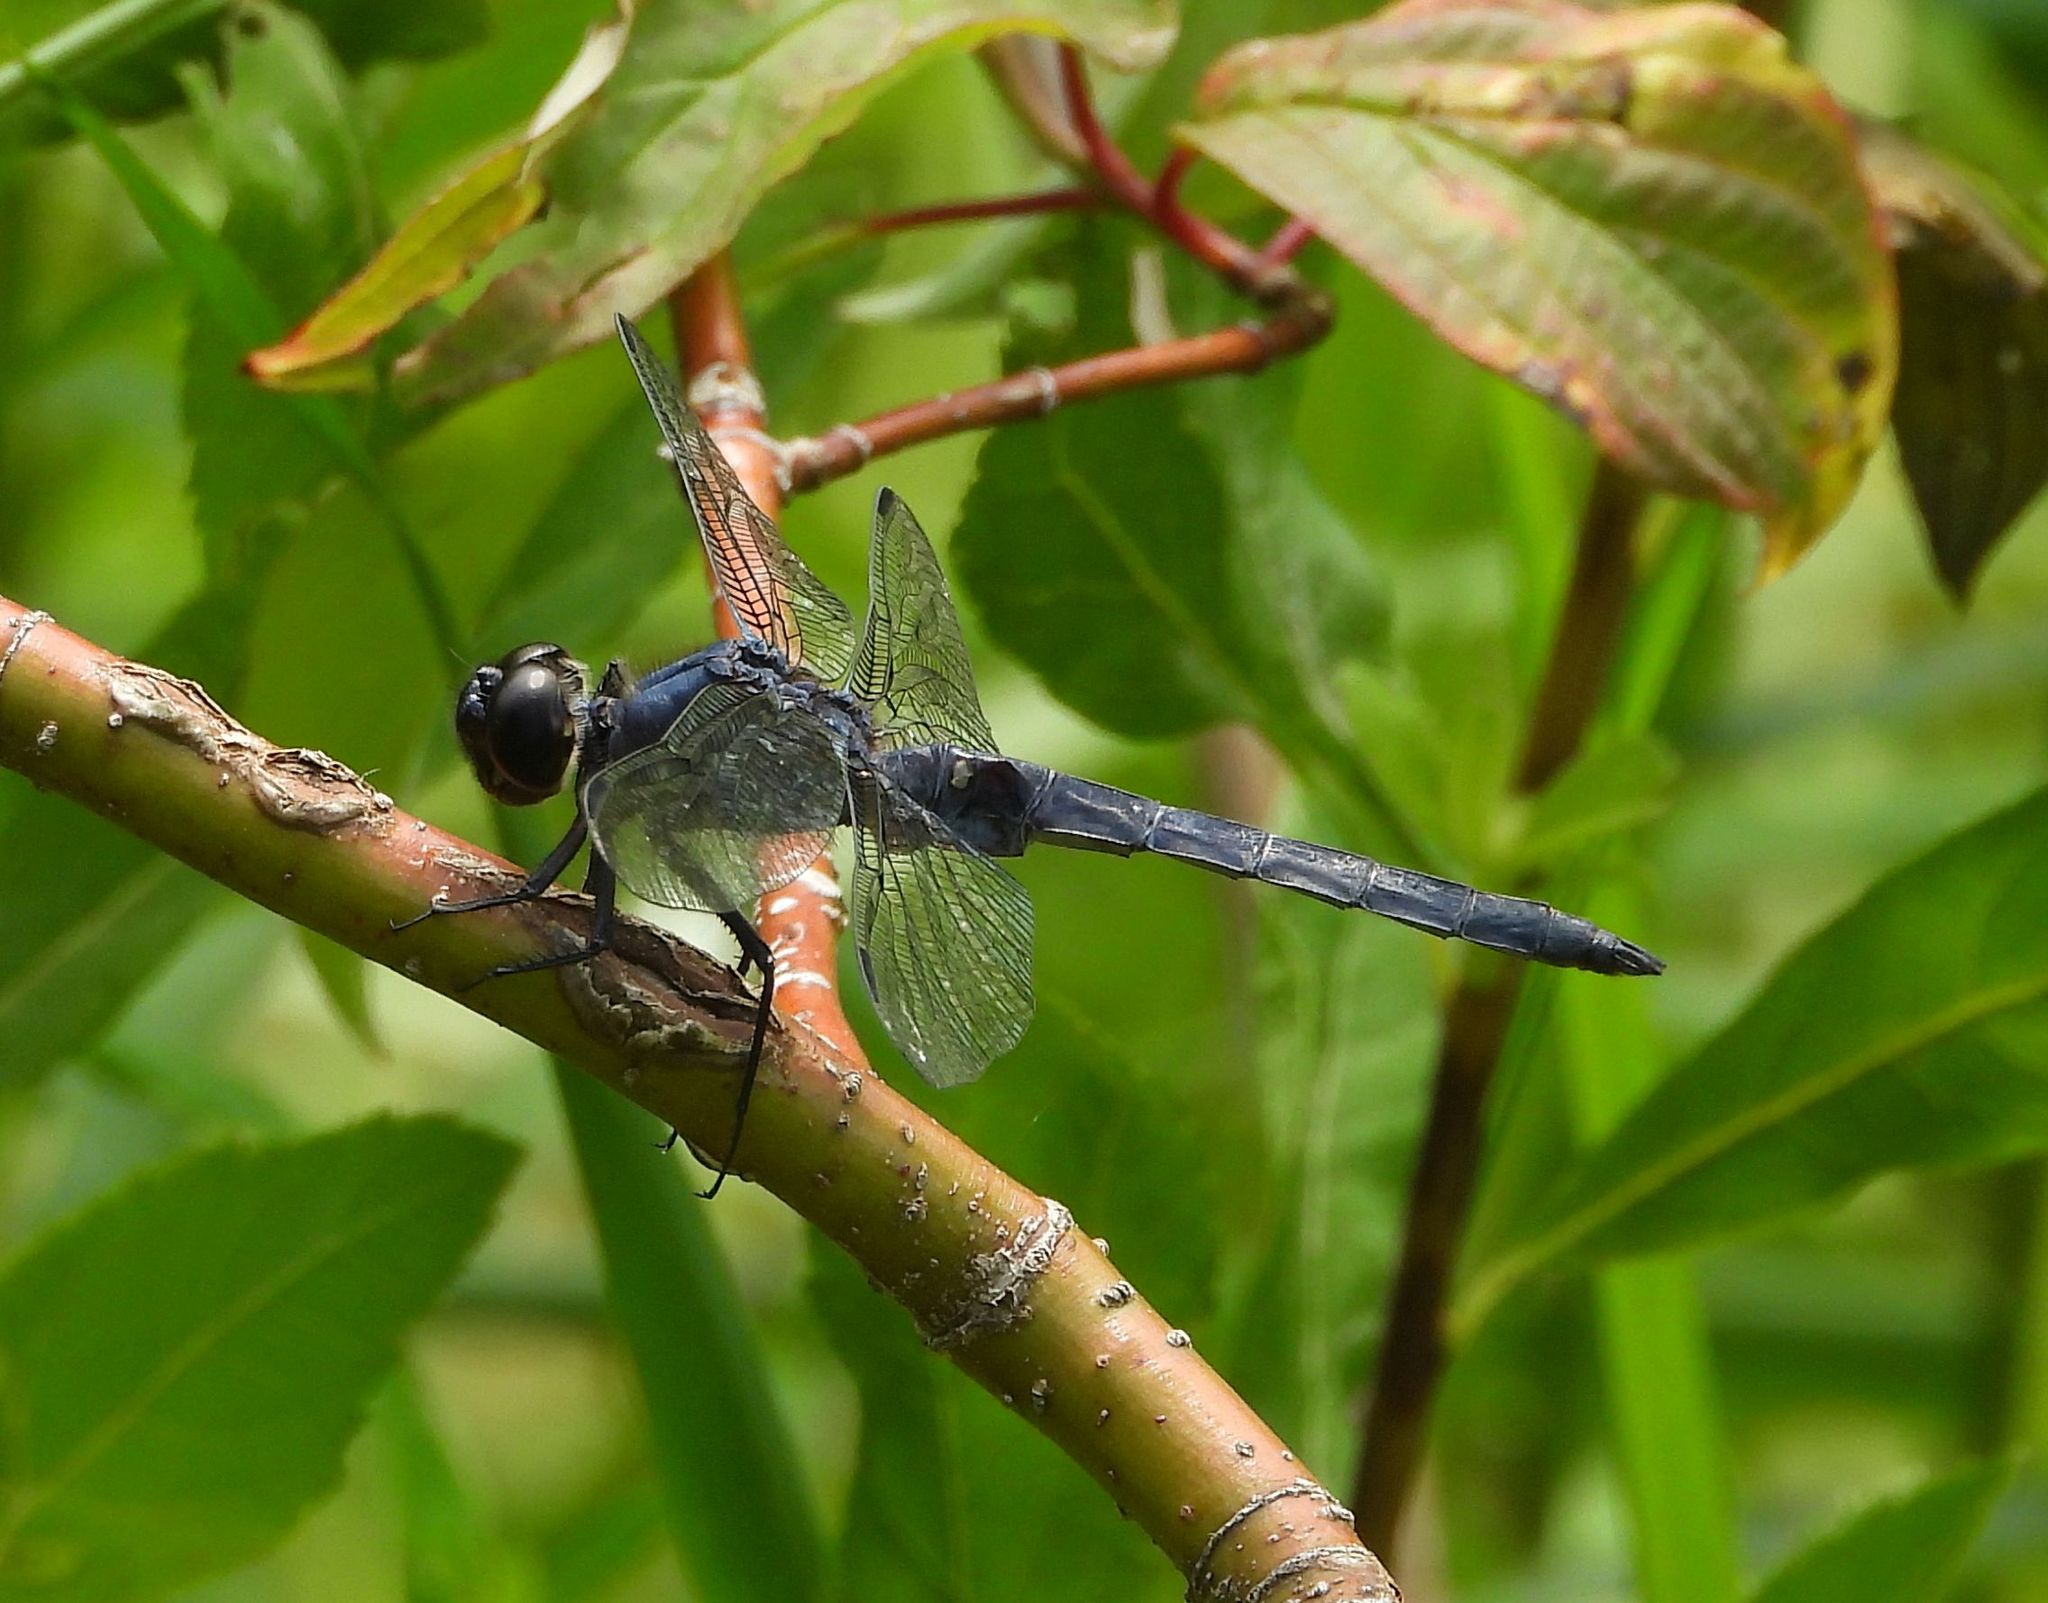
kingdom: Animalia
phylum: Arthropoda
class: Insecta
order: Odonata
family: Libellulidae
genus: Libellula
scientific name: Libellula incesta
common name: Slaty skimmer
